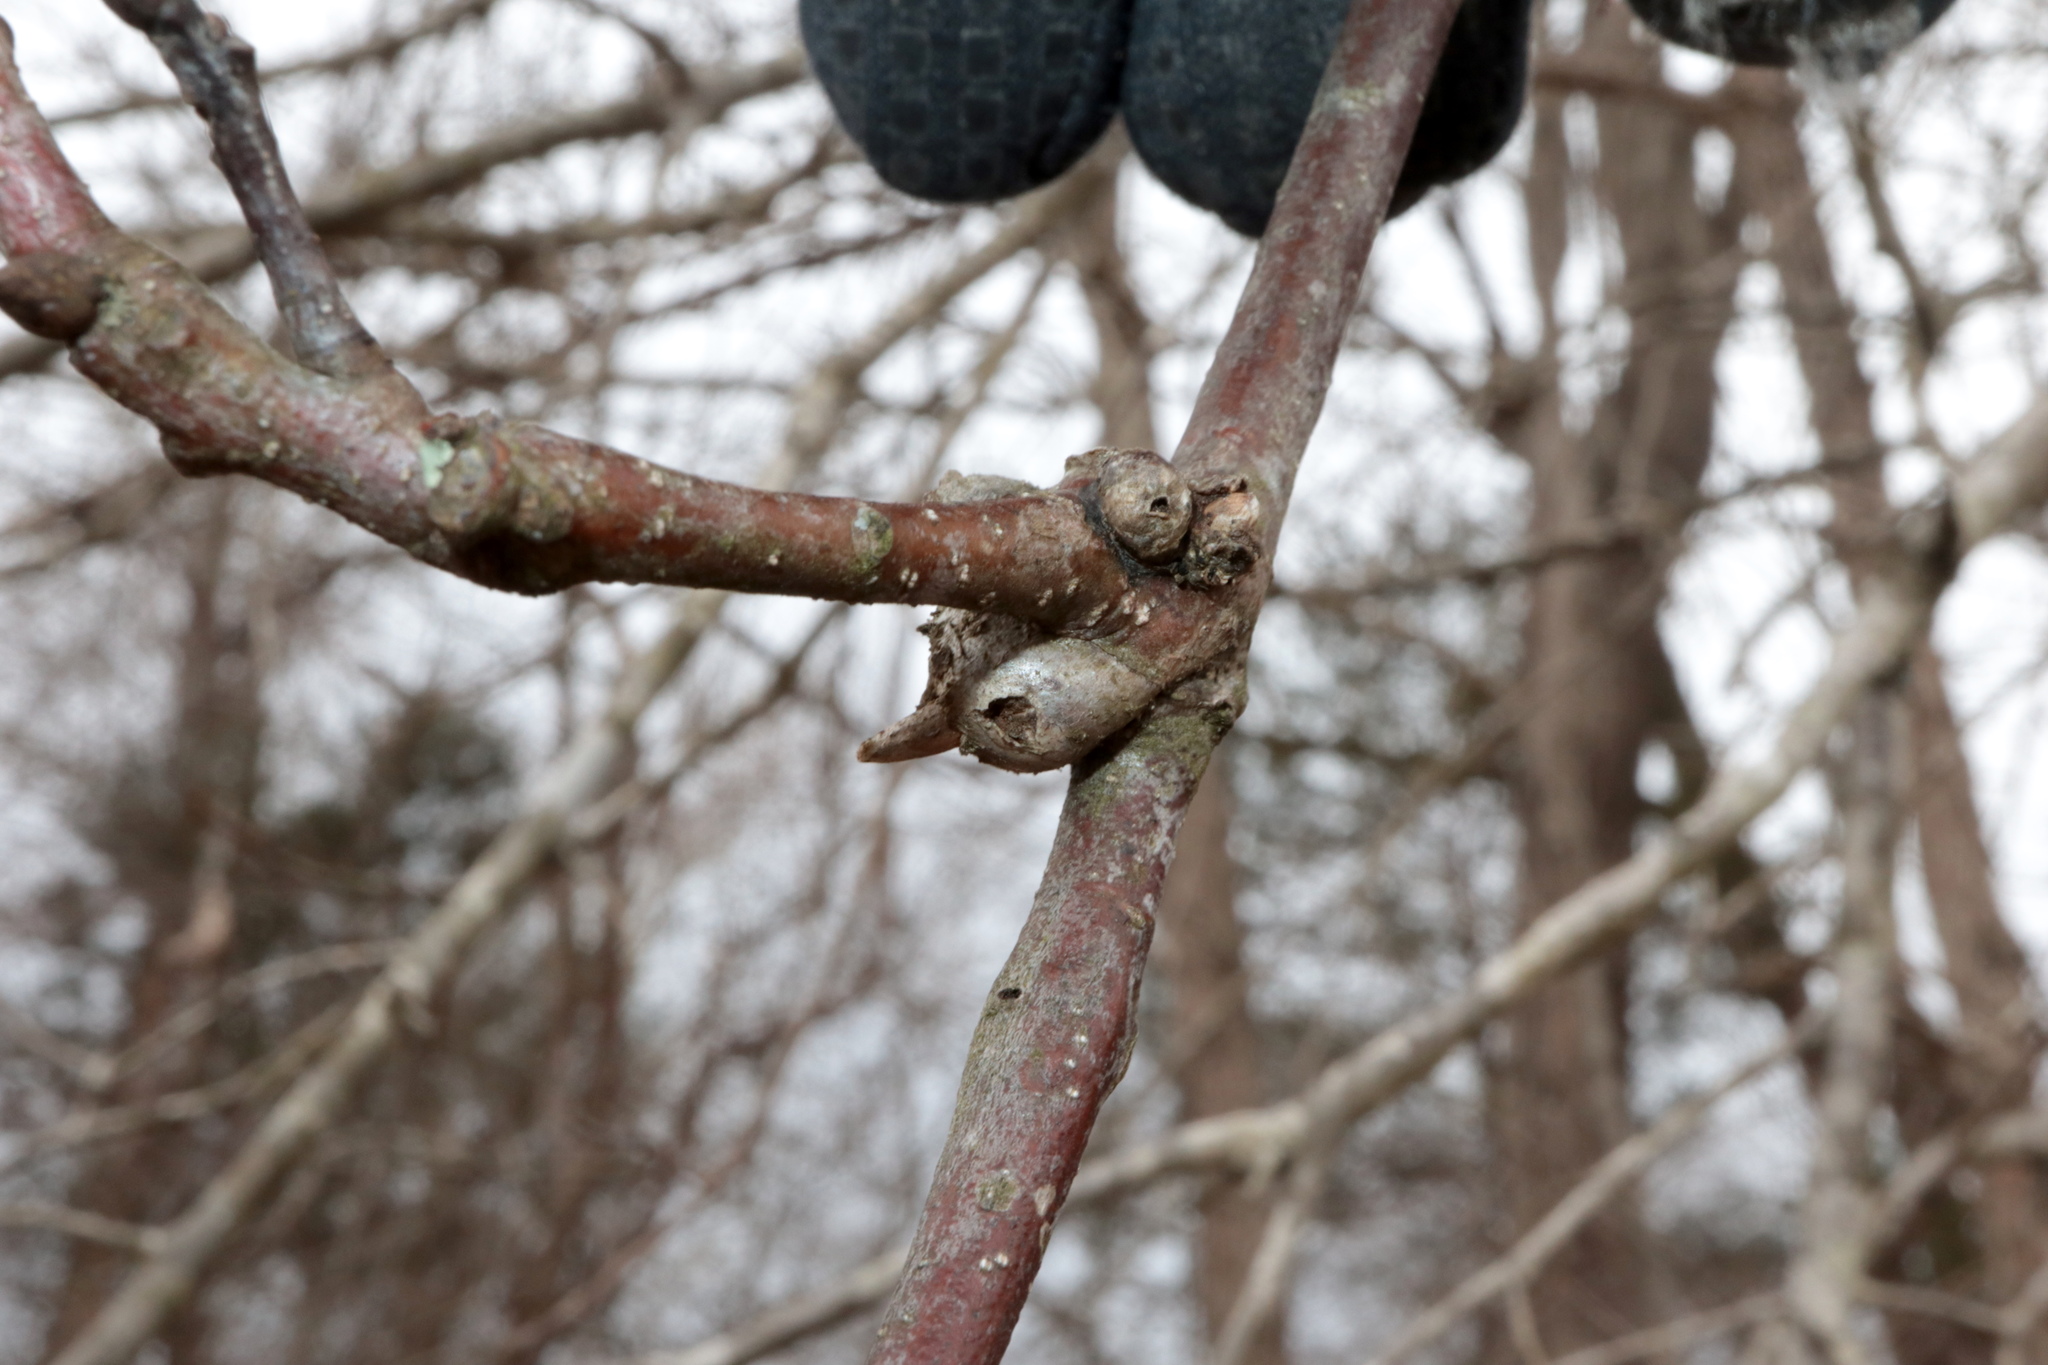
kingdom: Animalia
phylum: Arthropoda
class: Insecta
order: Hymenoptera
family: Cynipidae
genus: Callirhytis
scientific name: Callirhytis
